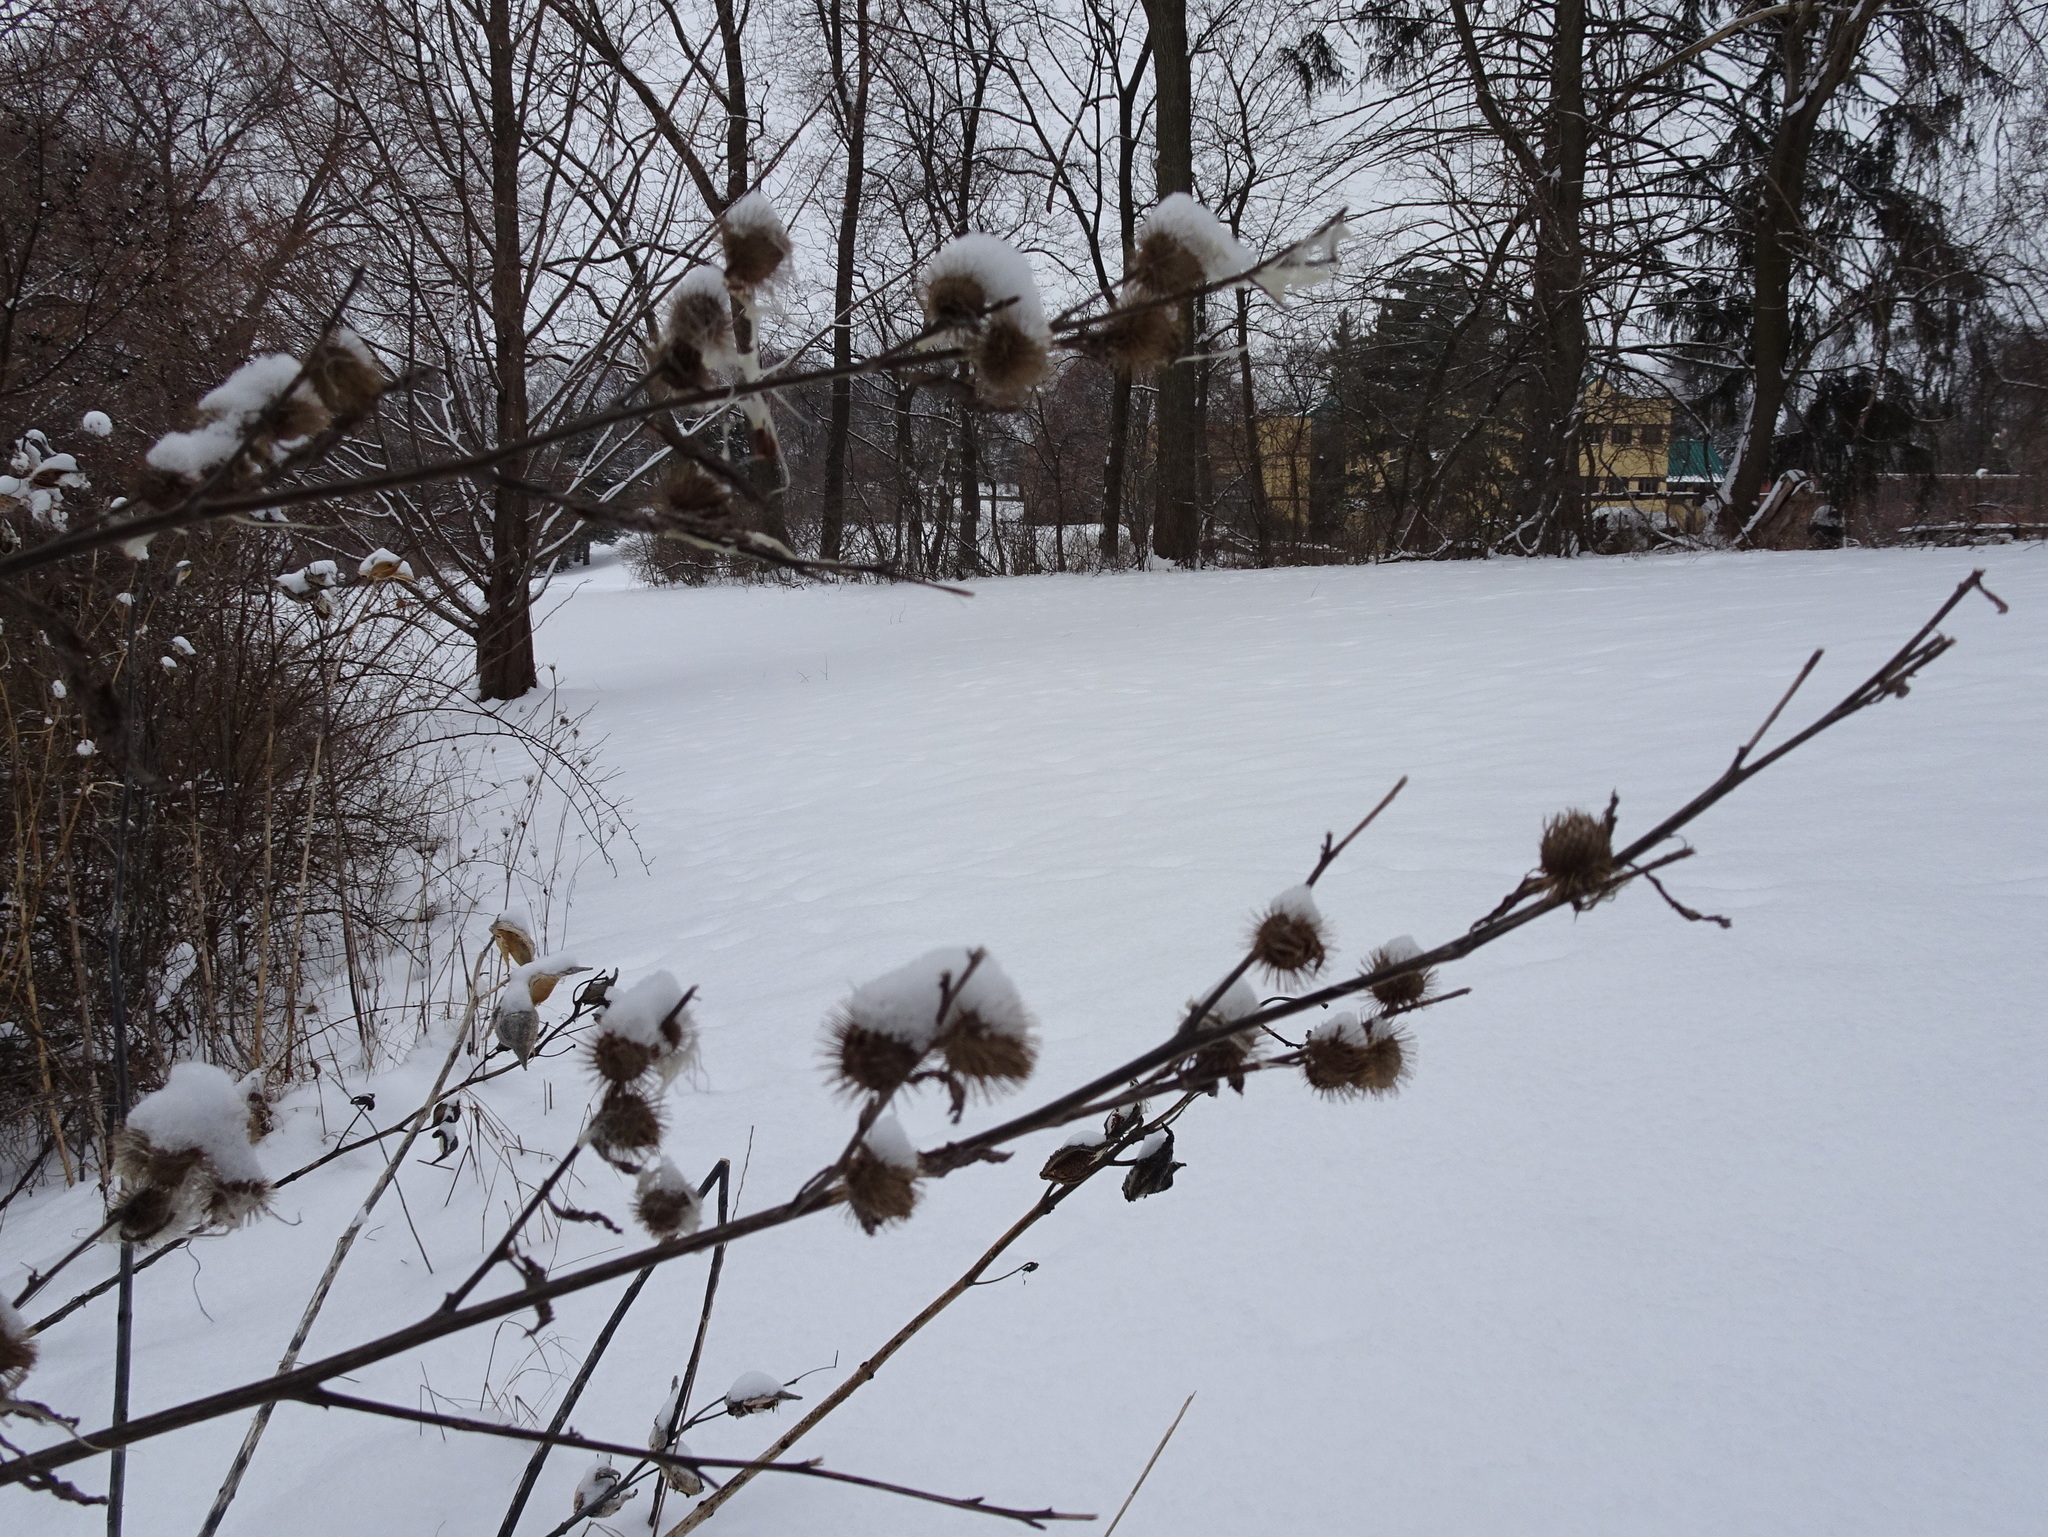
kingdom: Plantae
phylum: Tracheophyta
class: Magnoliopsida
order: Asterales
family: Asteraceae
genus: Arctium
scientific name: Arctium minus
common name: Lesser burdock
